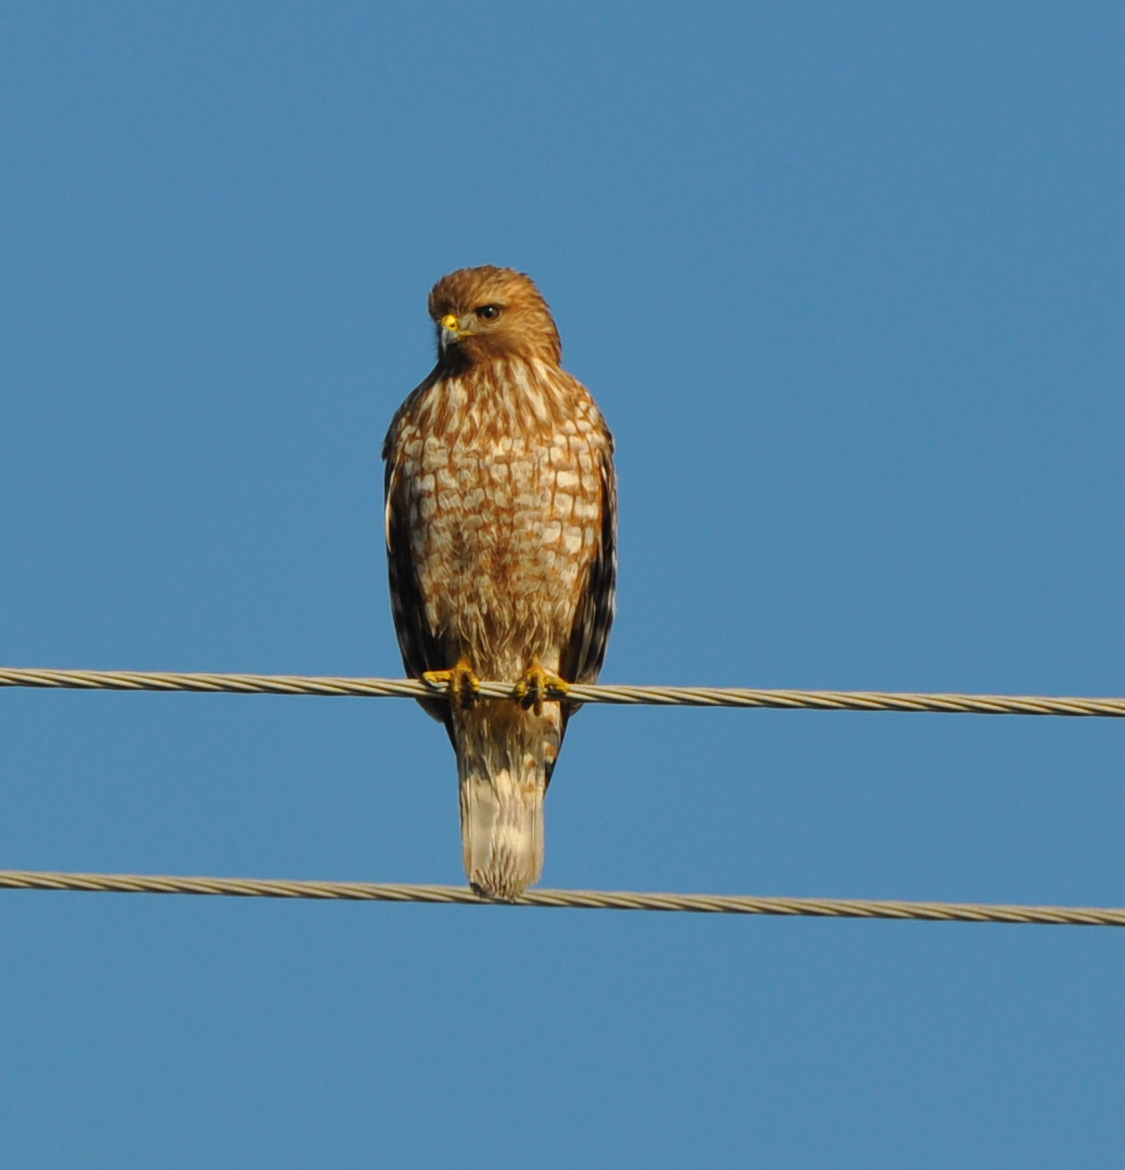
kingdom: Animalia
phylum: Chordata
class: Aves
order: Accipitriformes
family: Accipitridae
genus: Buteo
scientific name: Buteo lineatus
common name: Red-shouldered hawk
